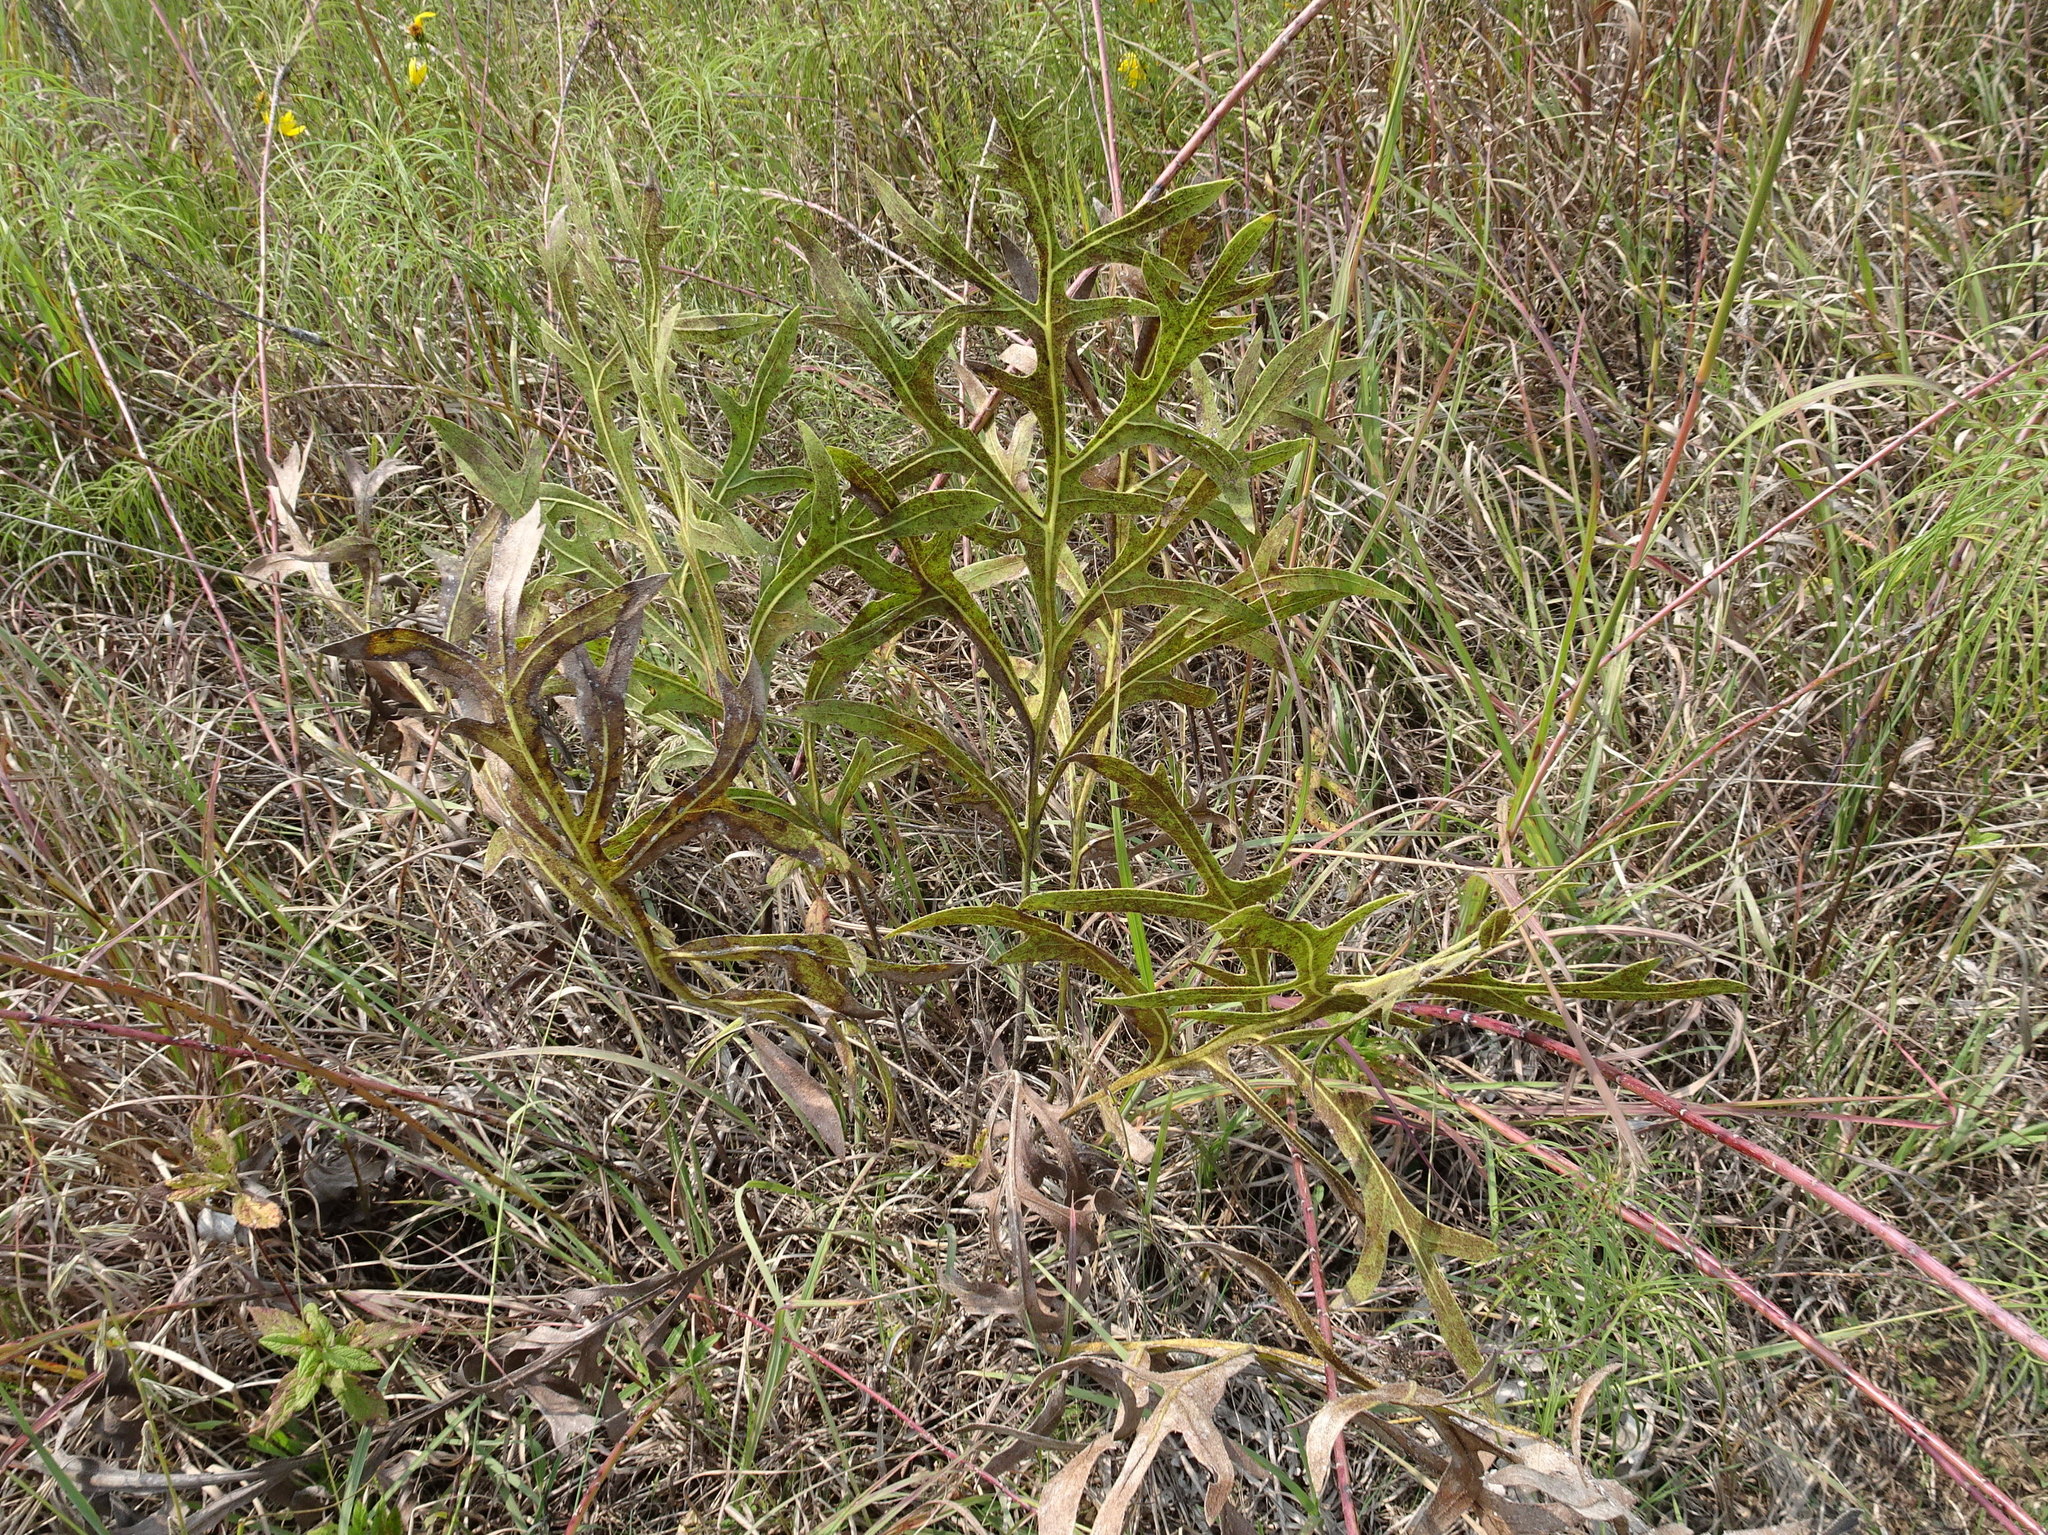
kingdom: Plantae
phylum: Tracheophyta
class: Magnoliopsida
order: Asterales
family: Asteraceae
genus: Silphium
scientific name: Silphium laciniatum
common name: Polarplant
